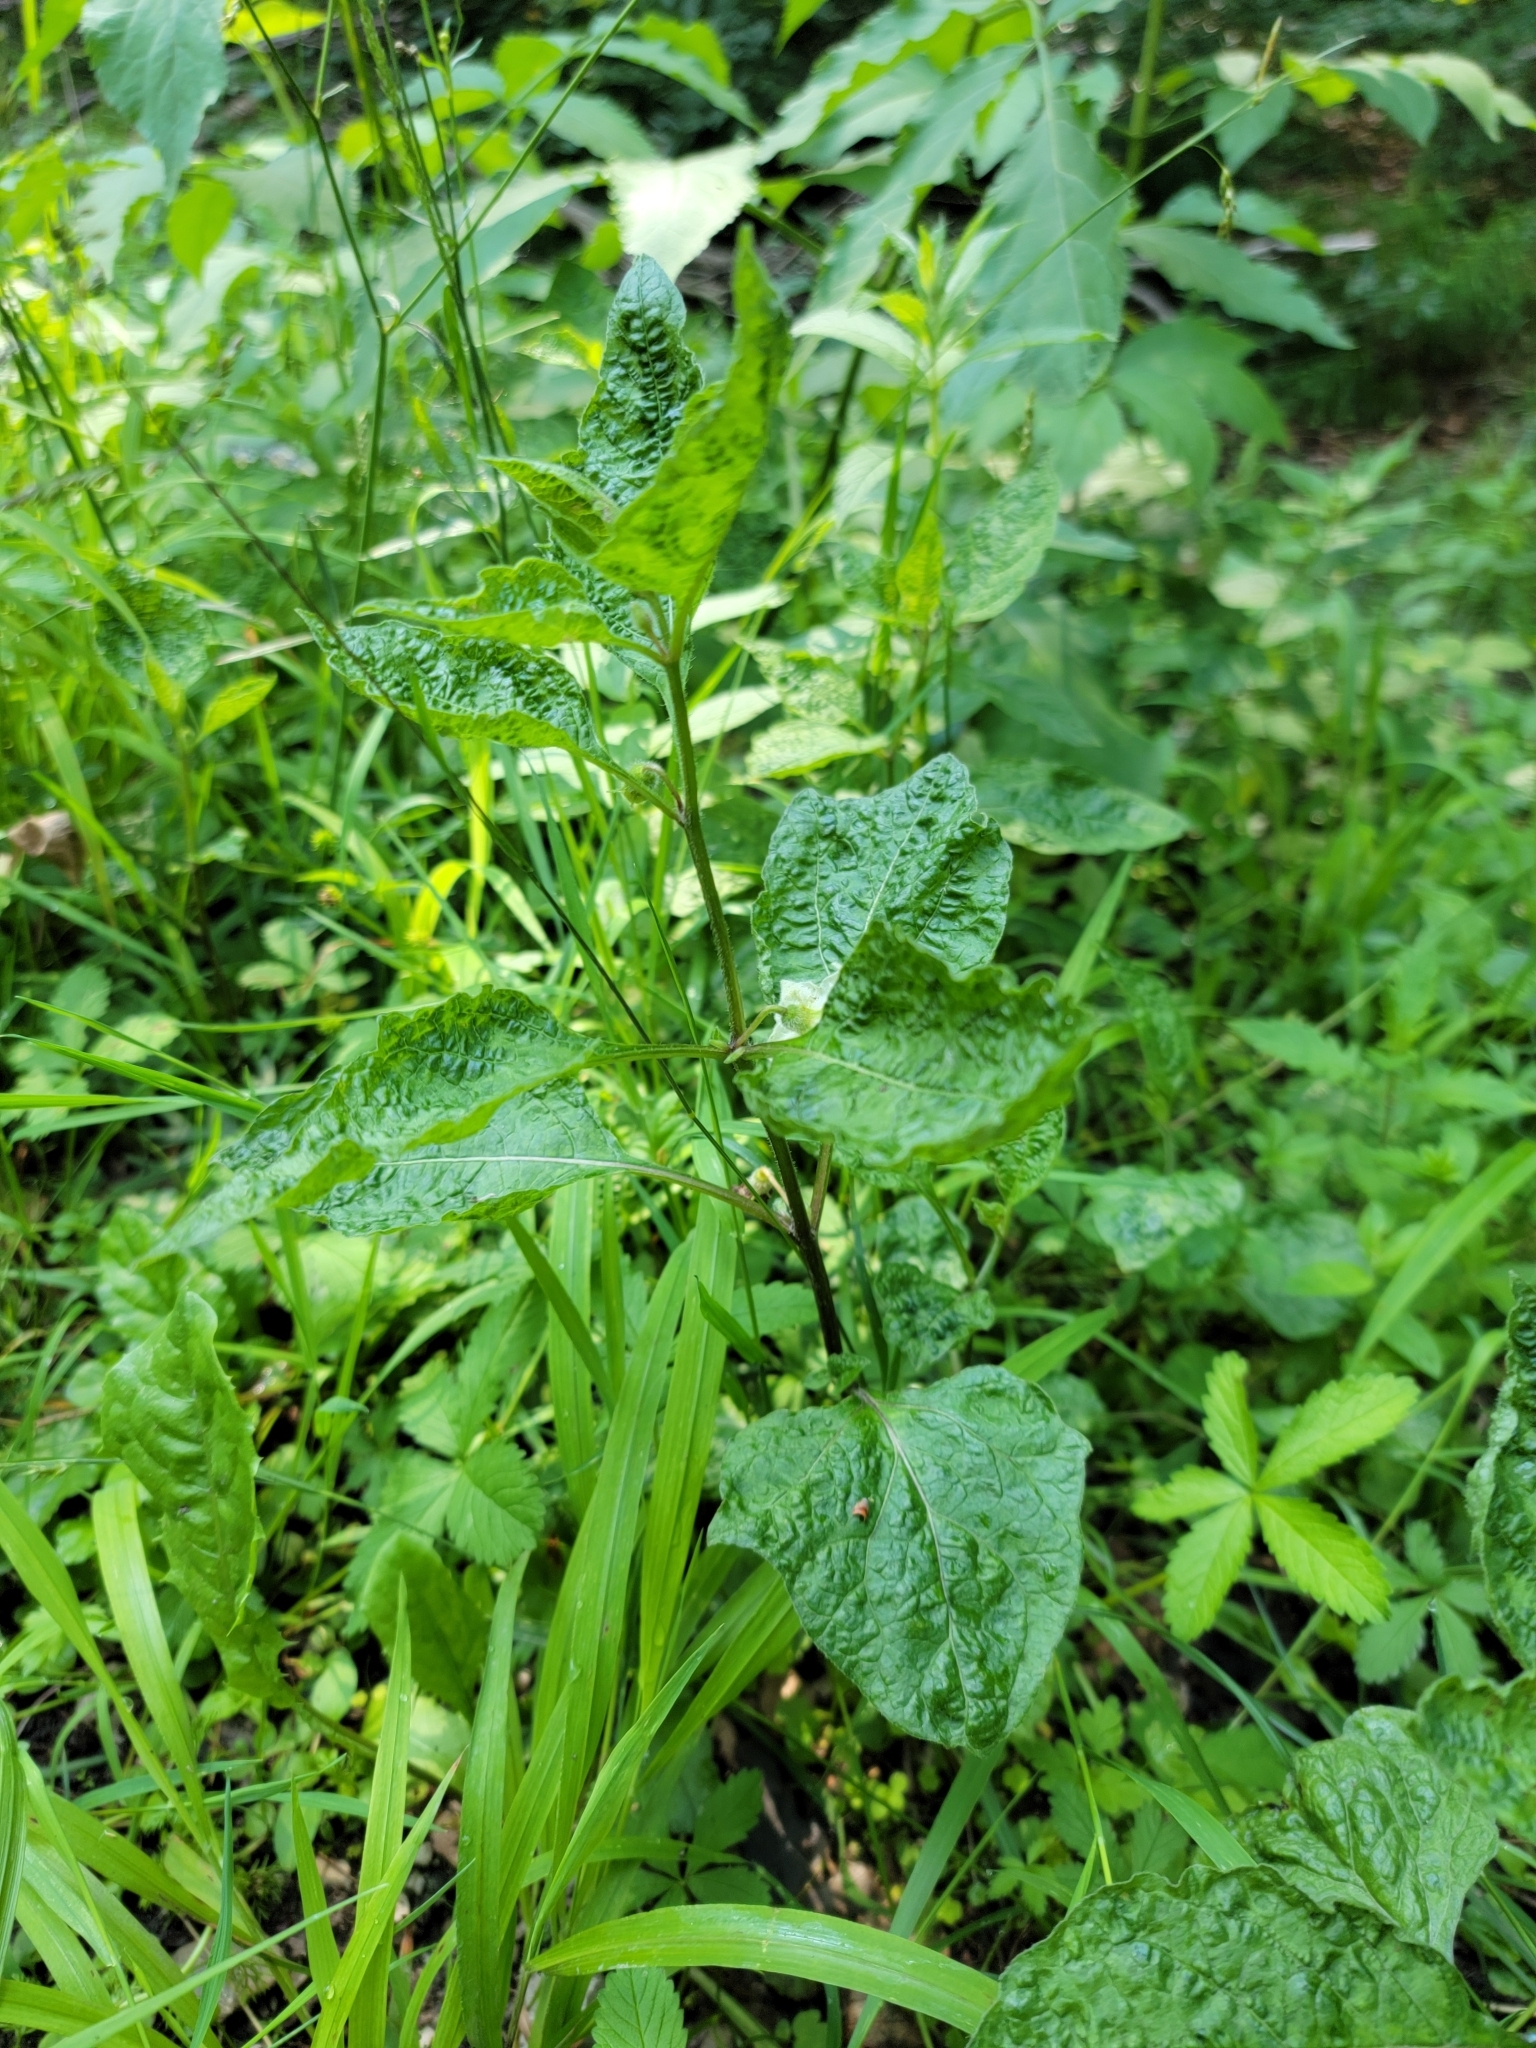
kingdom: Plantae
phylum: Tracheophyta
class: Magnoliopsida
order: Solanales
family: Solanaceae
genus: Alkekengi
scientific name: Alkekengi officinarum
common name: Japanese-lantern
